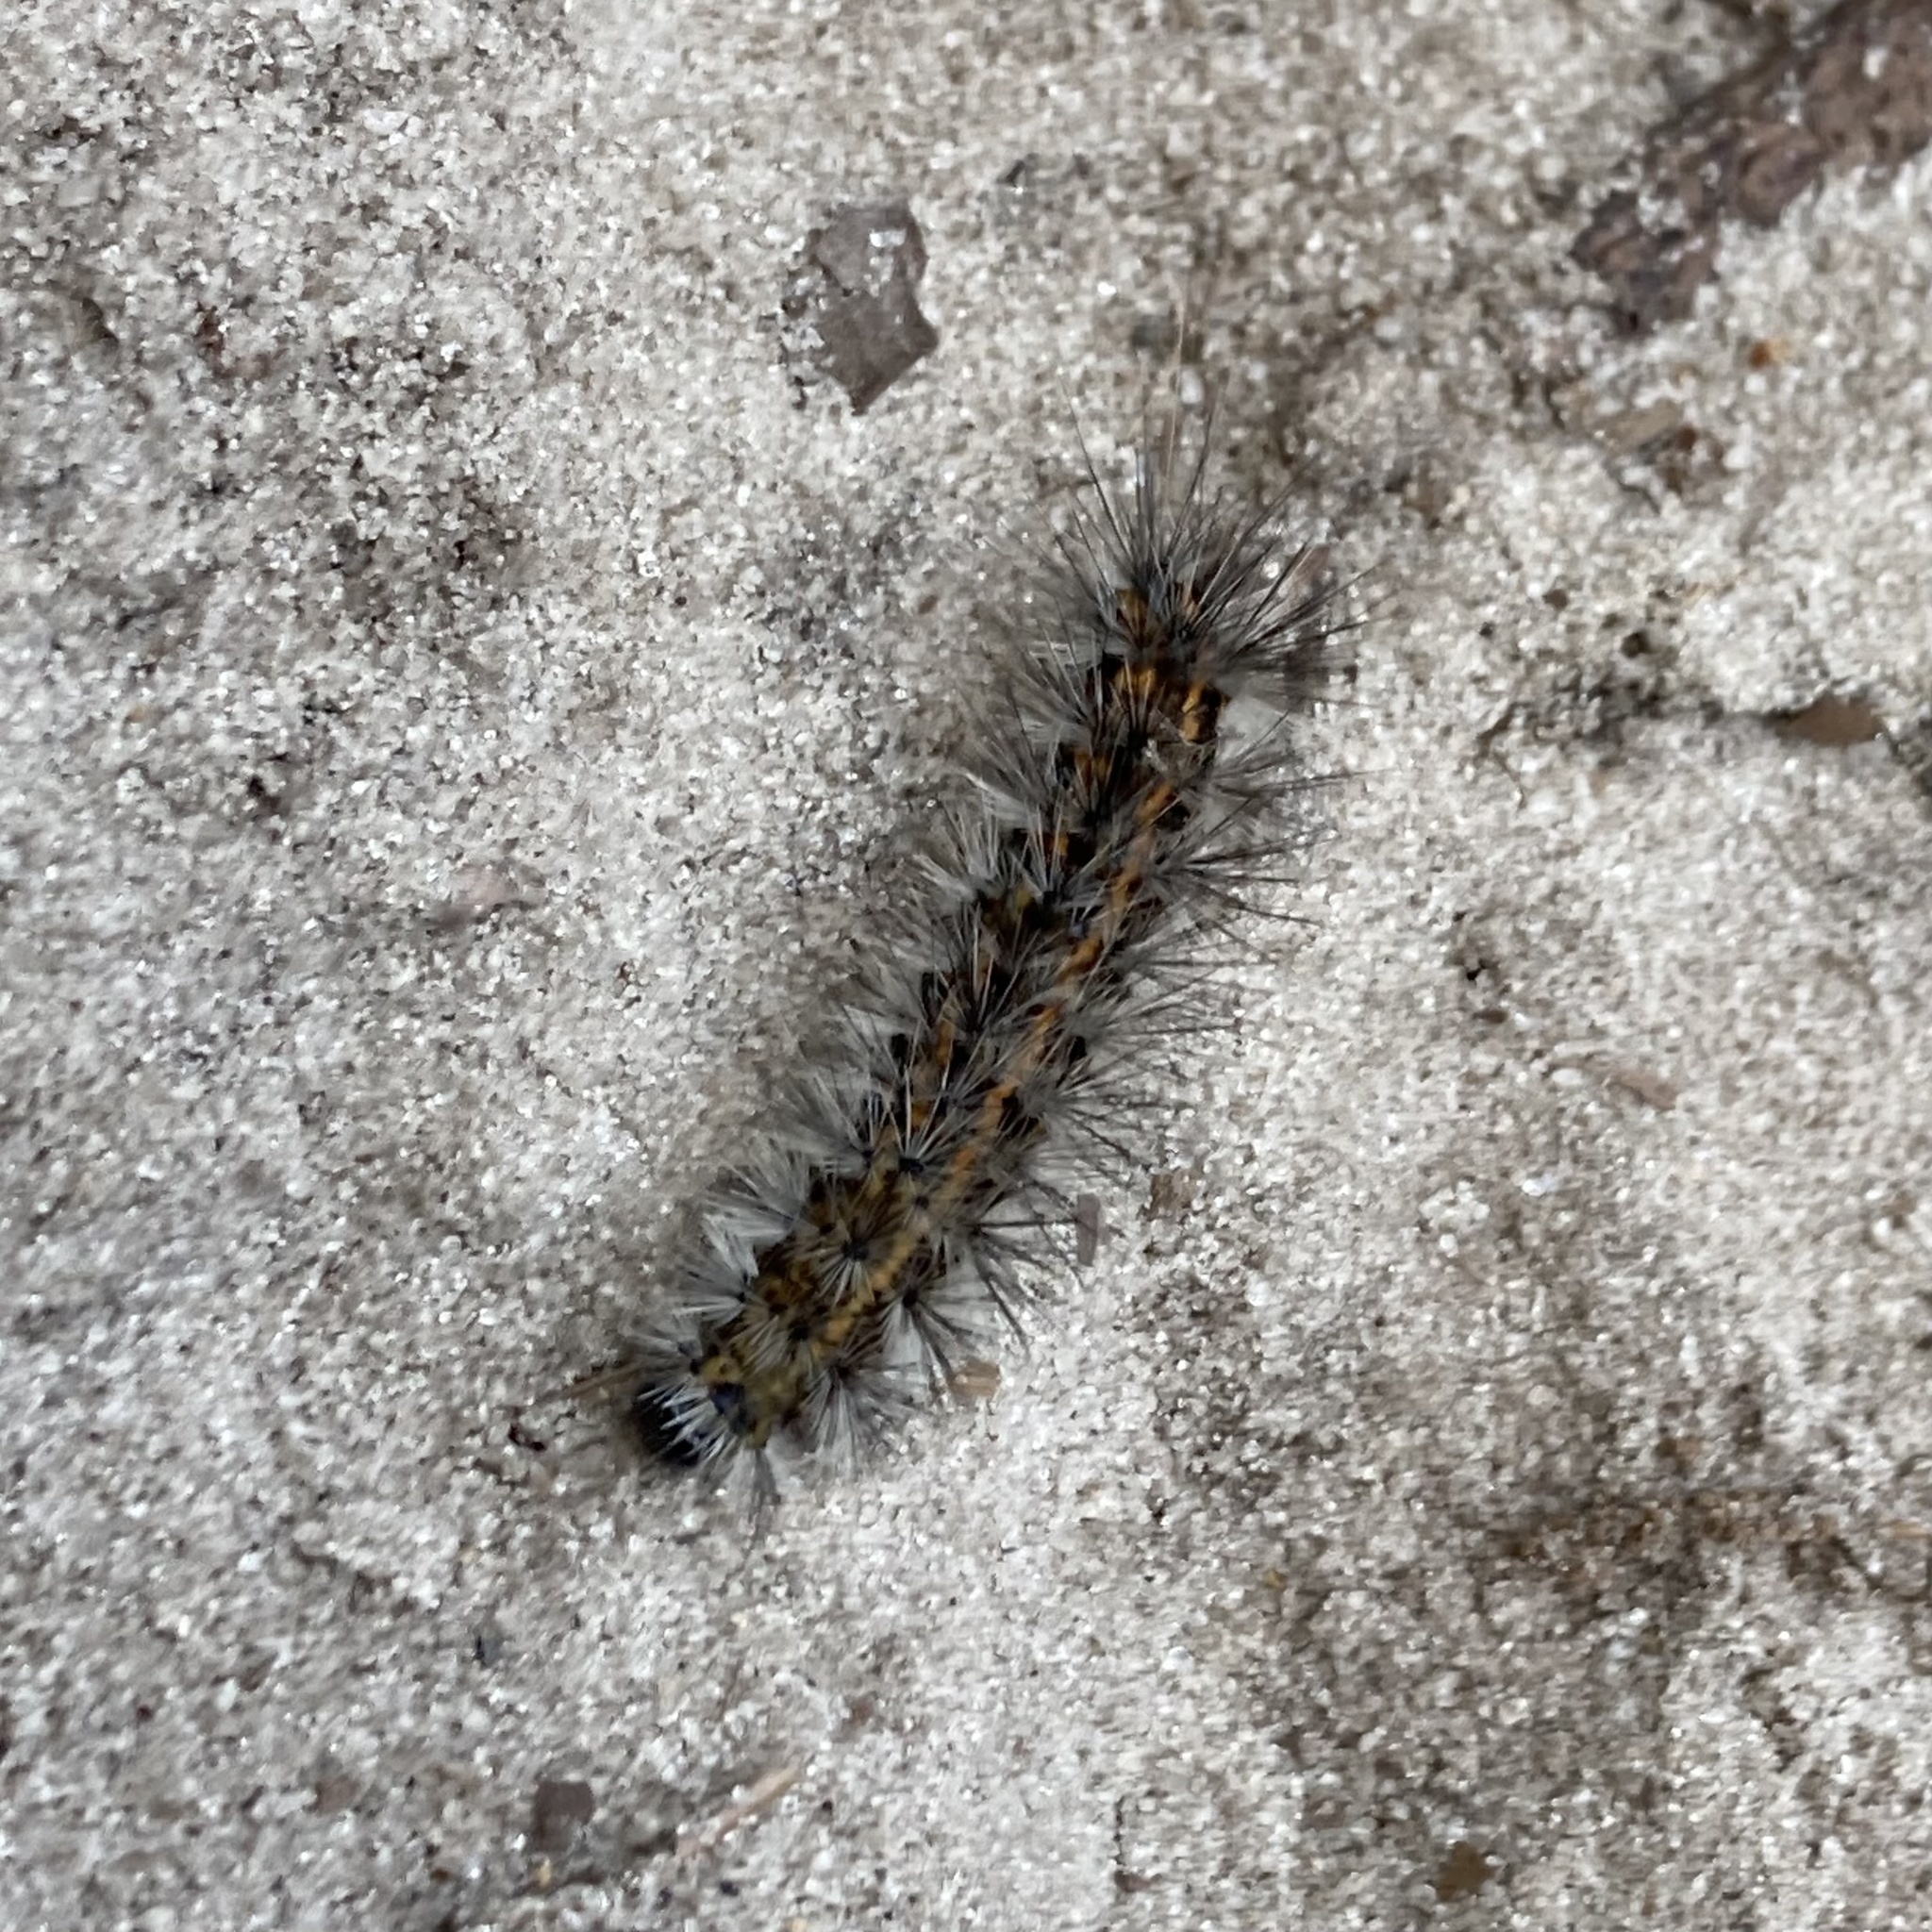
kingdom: Animalia
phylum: Arthropoda
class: Insecta
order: Lepidoptera
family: Erebidae
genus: Spilosoma
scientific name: Spilosoma dubia
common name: Dubious tiger moth
